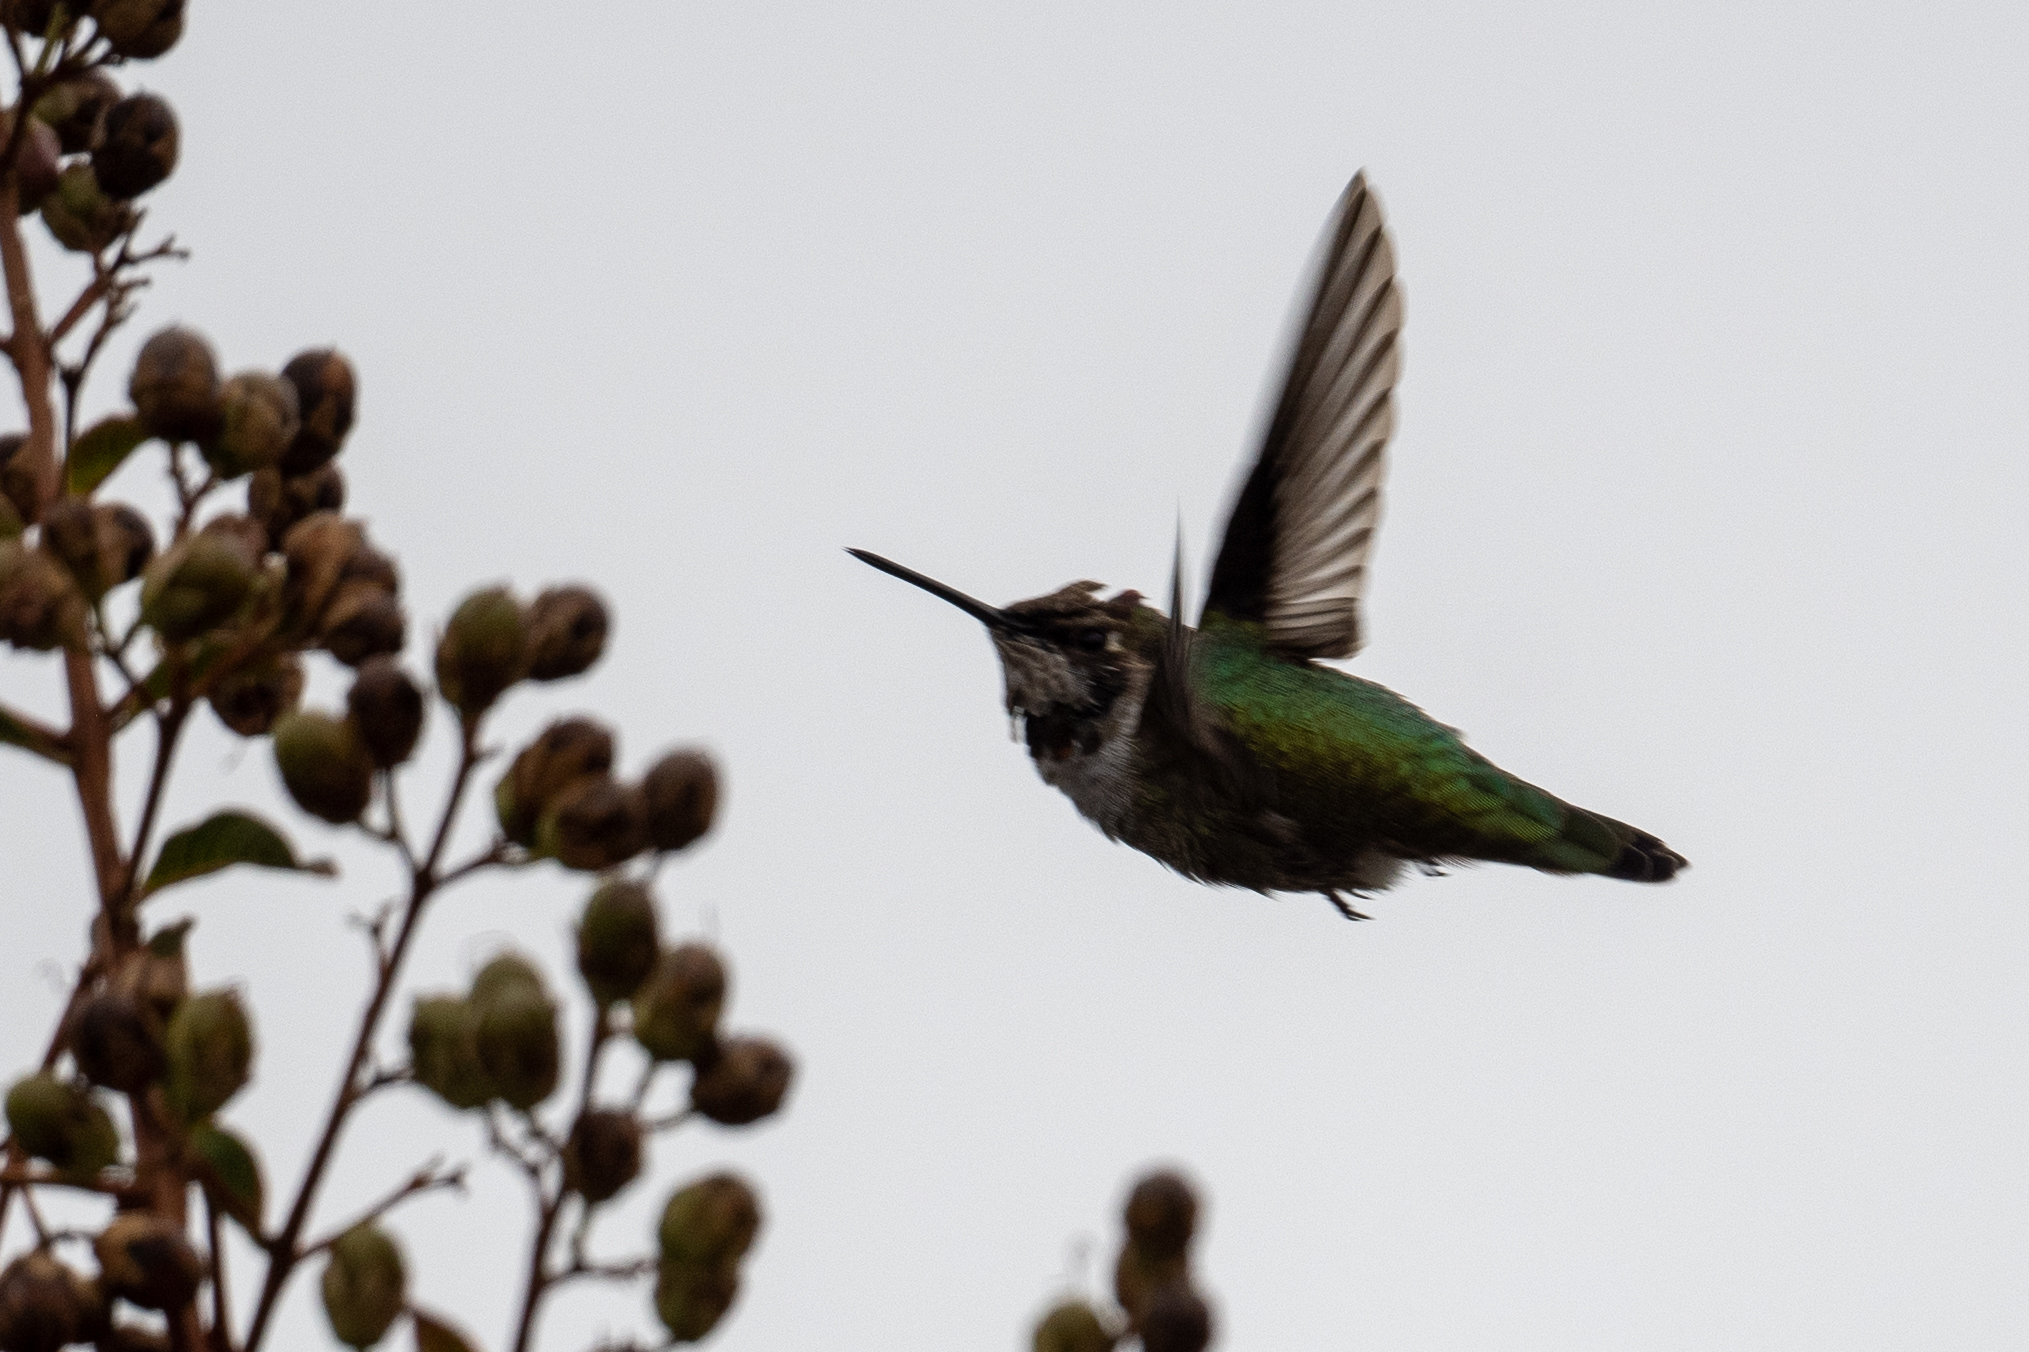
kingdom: Animalia
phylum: Chordata
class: Aves
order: Apodiformes
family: Trochilidae
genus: Calypte
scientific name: Calypte anna
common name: Anna's hummingbird
